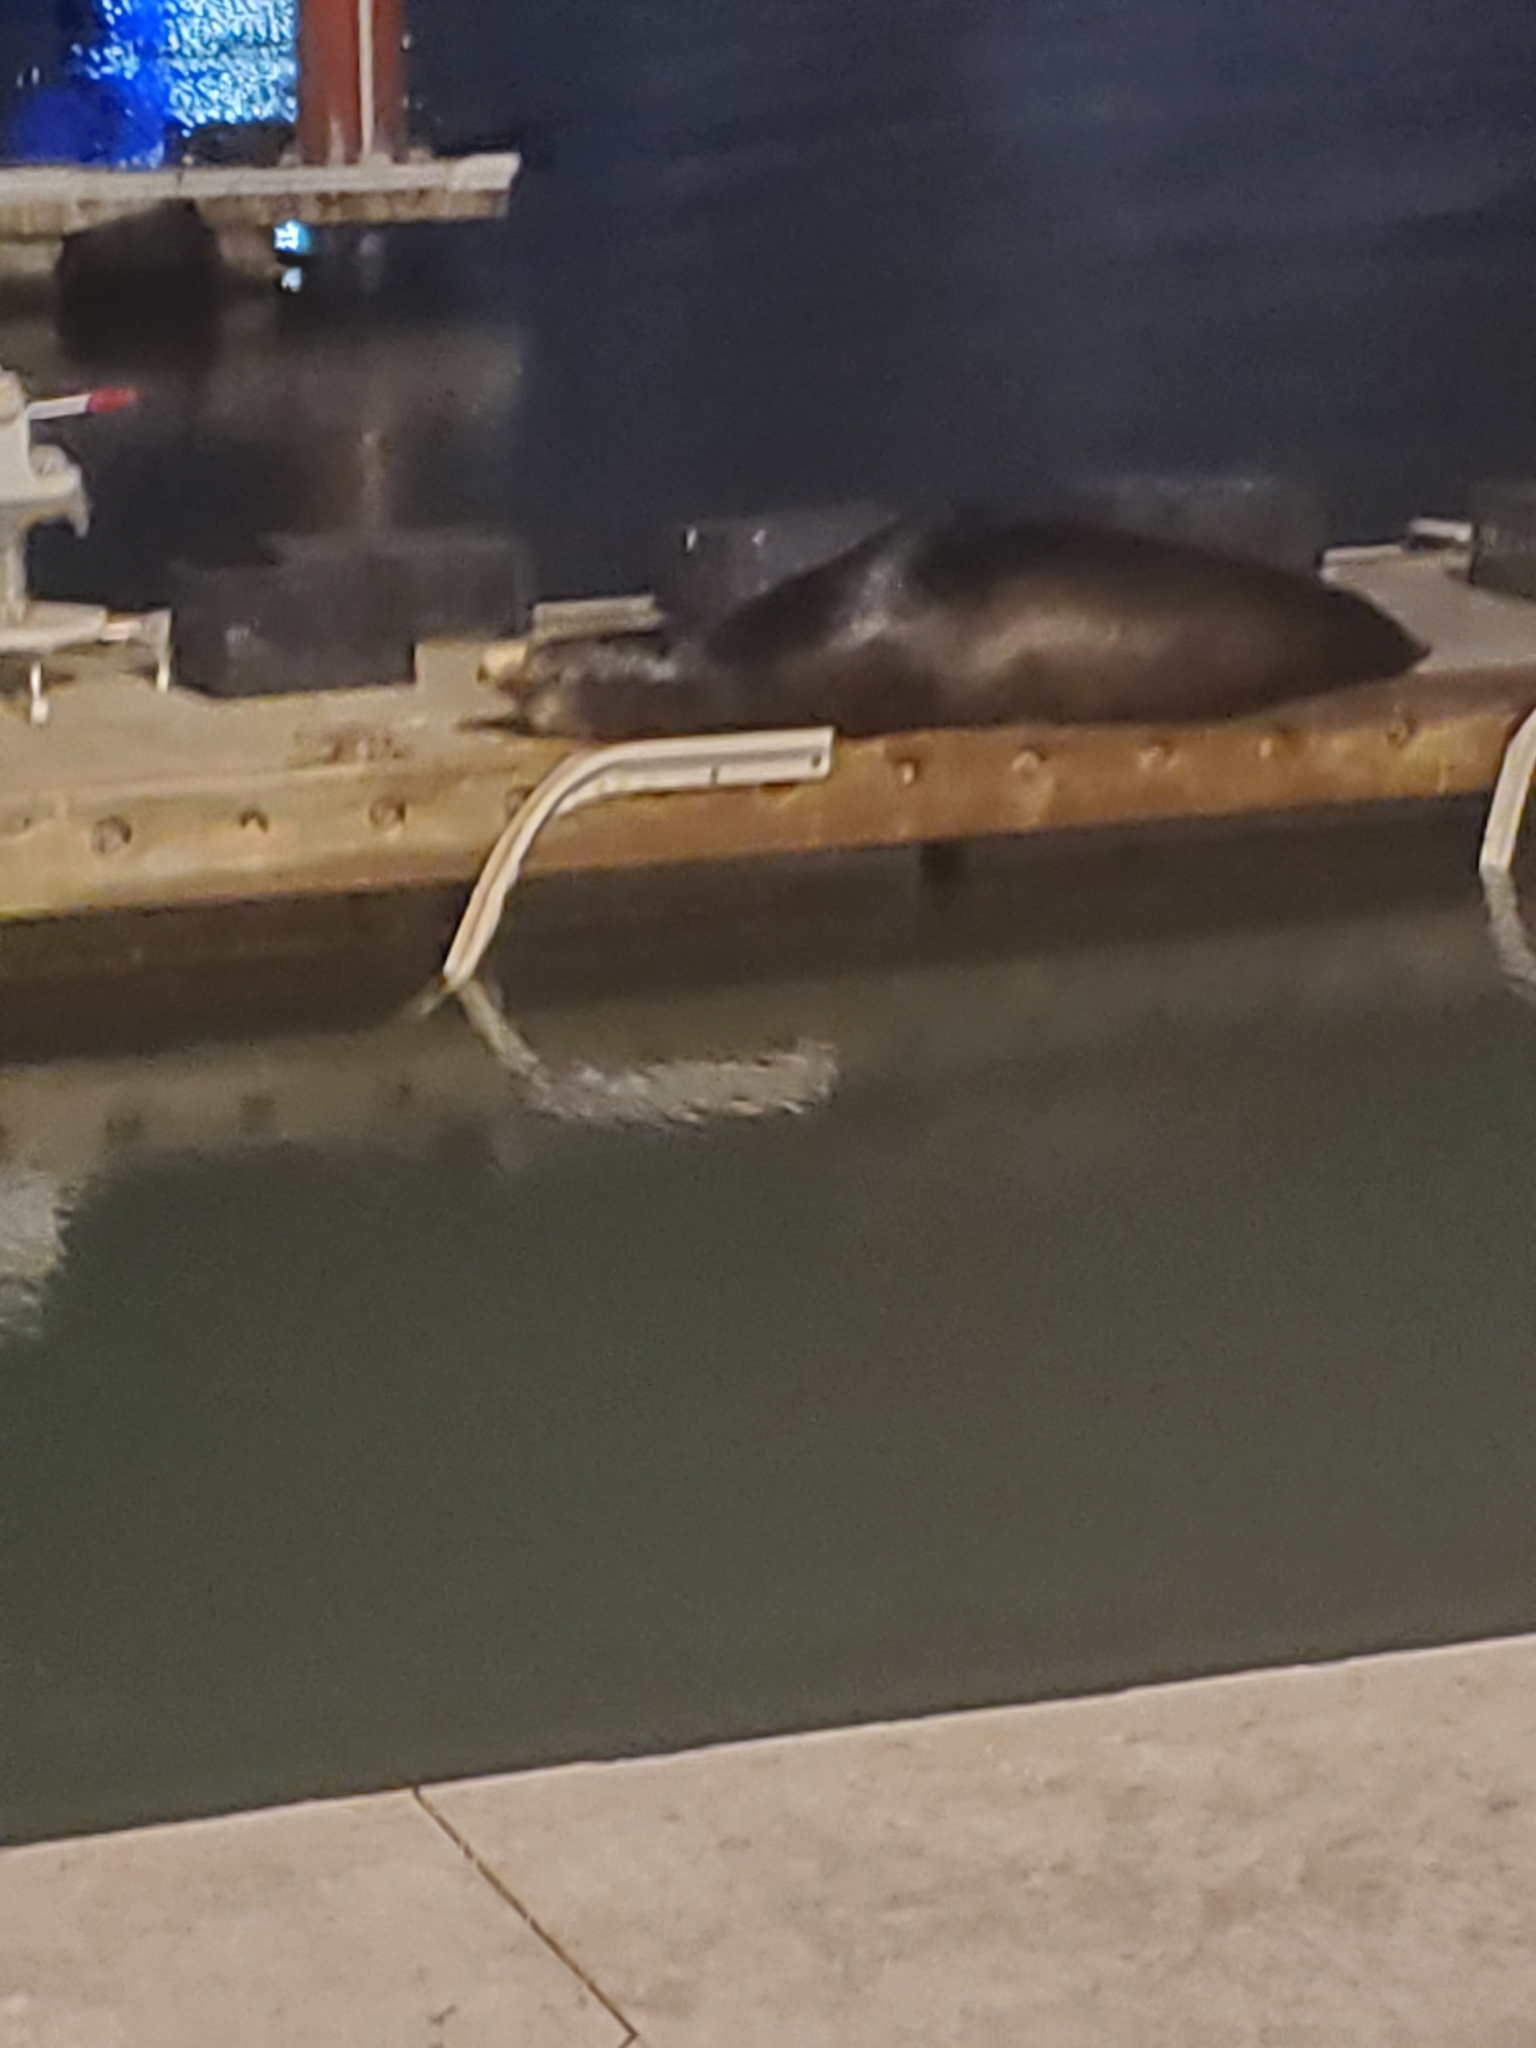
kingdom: Animalia
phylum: Chordata
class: Mammalia
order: Carnivora
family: Otariidae
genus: Zalophus
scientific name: Zalophus californianus
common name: California sea lion
